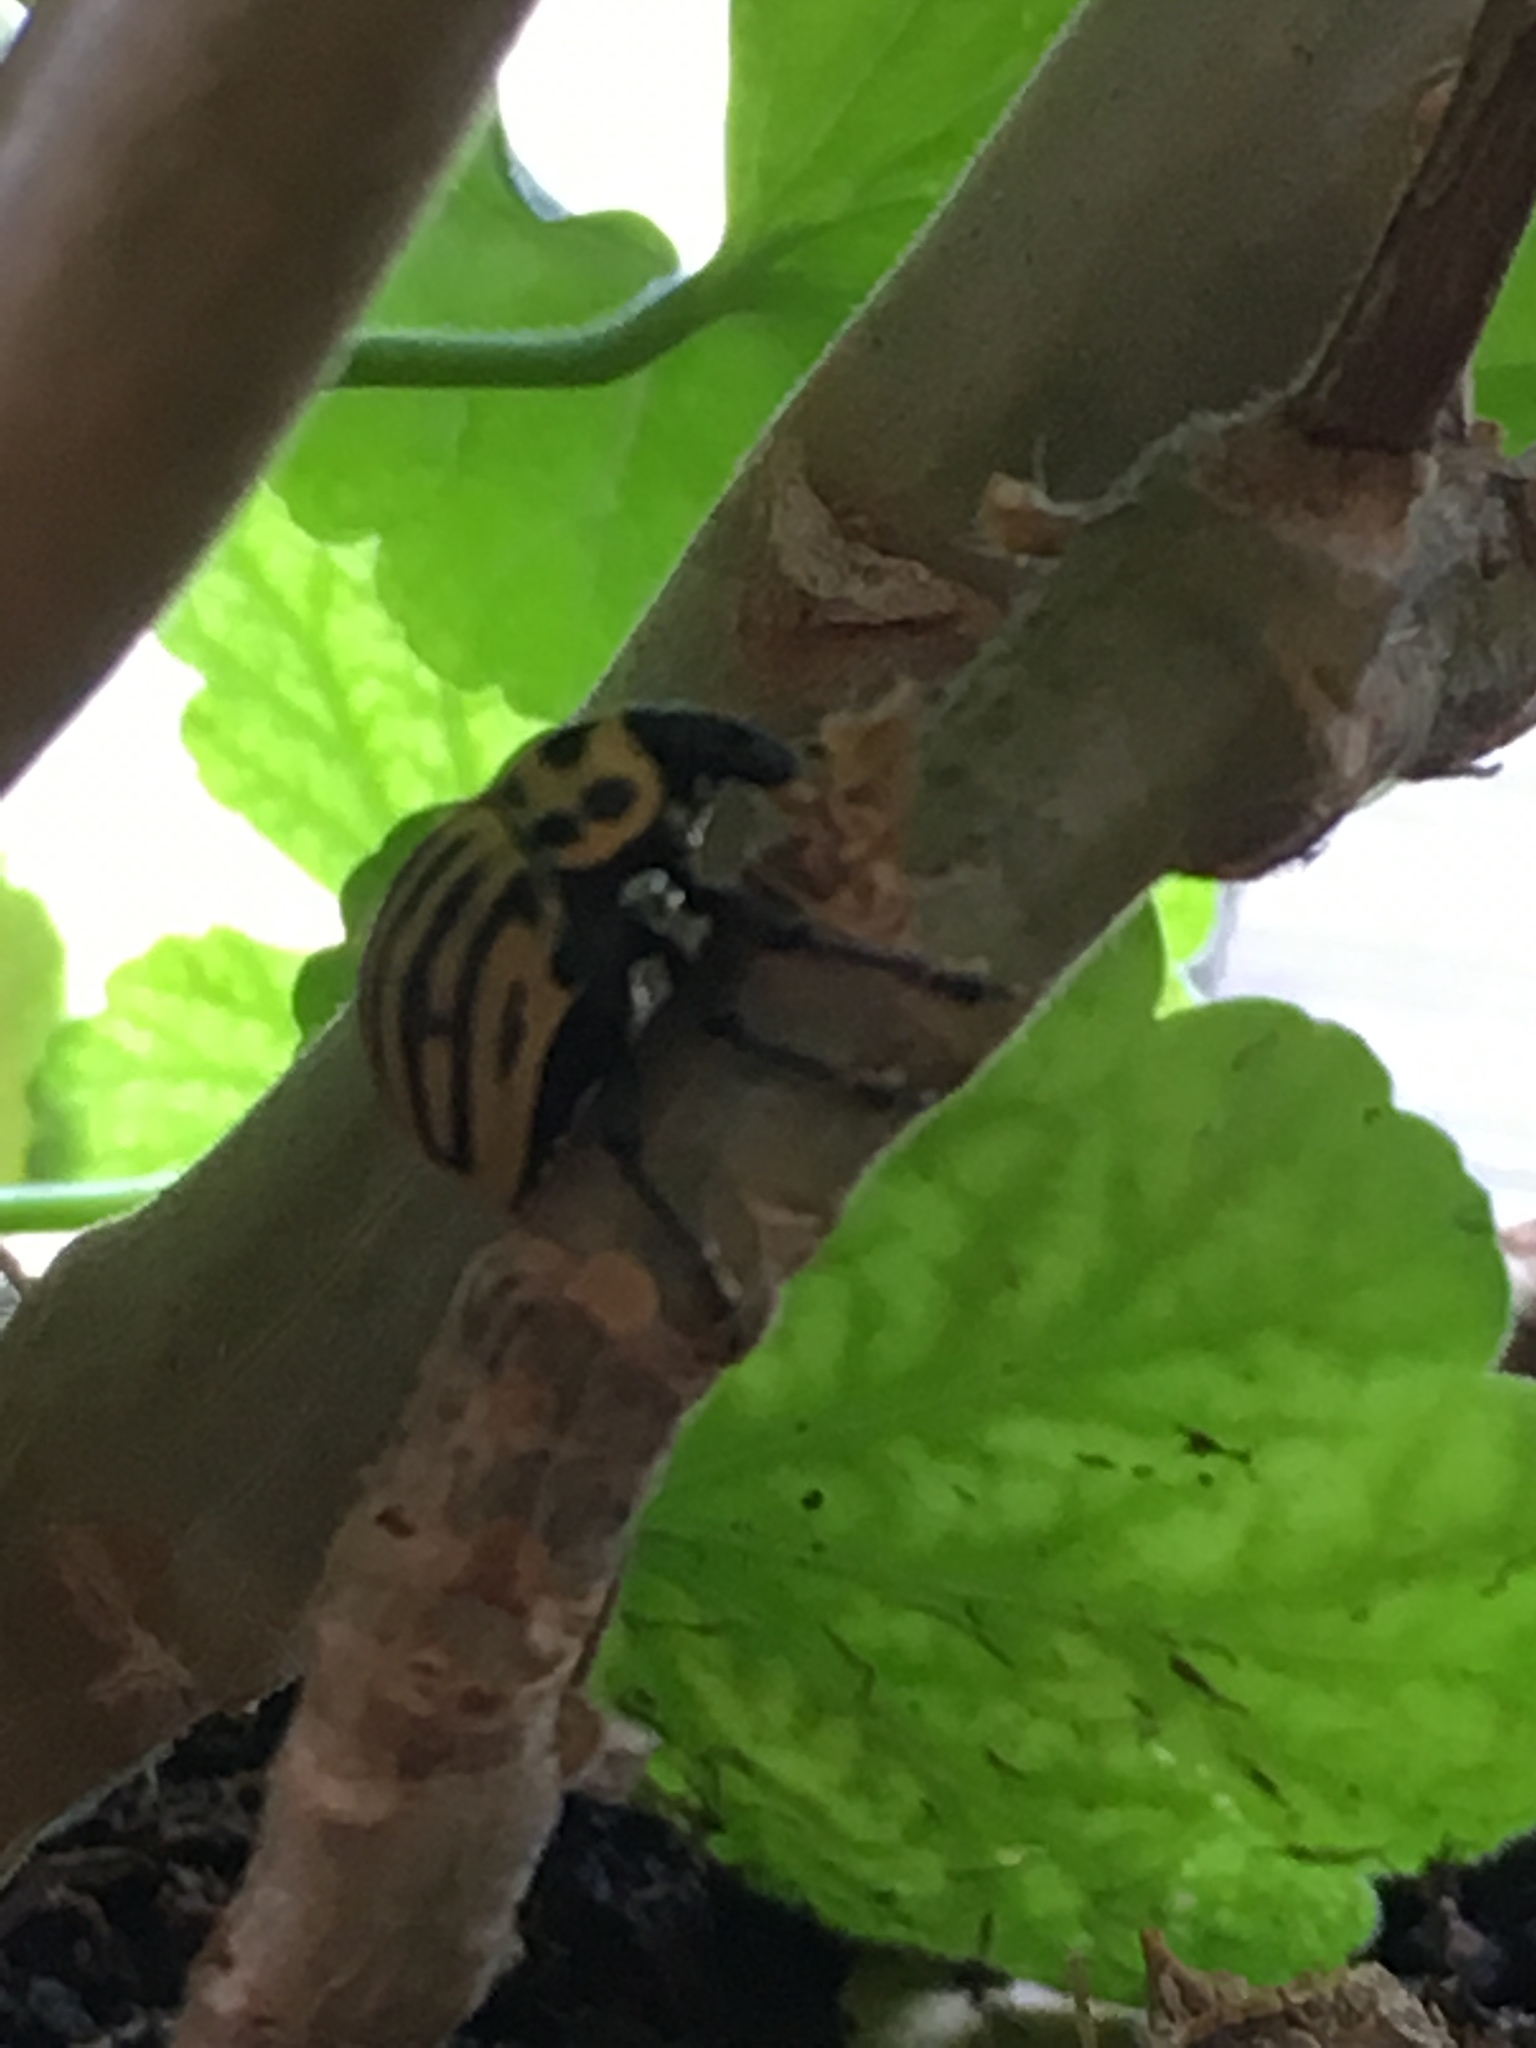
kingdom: Animalia
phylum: Arthropoda
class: Insecta
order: Coleoptera
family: Curculionidae
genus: Sternechus
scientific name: Sternechus continuus
